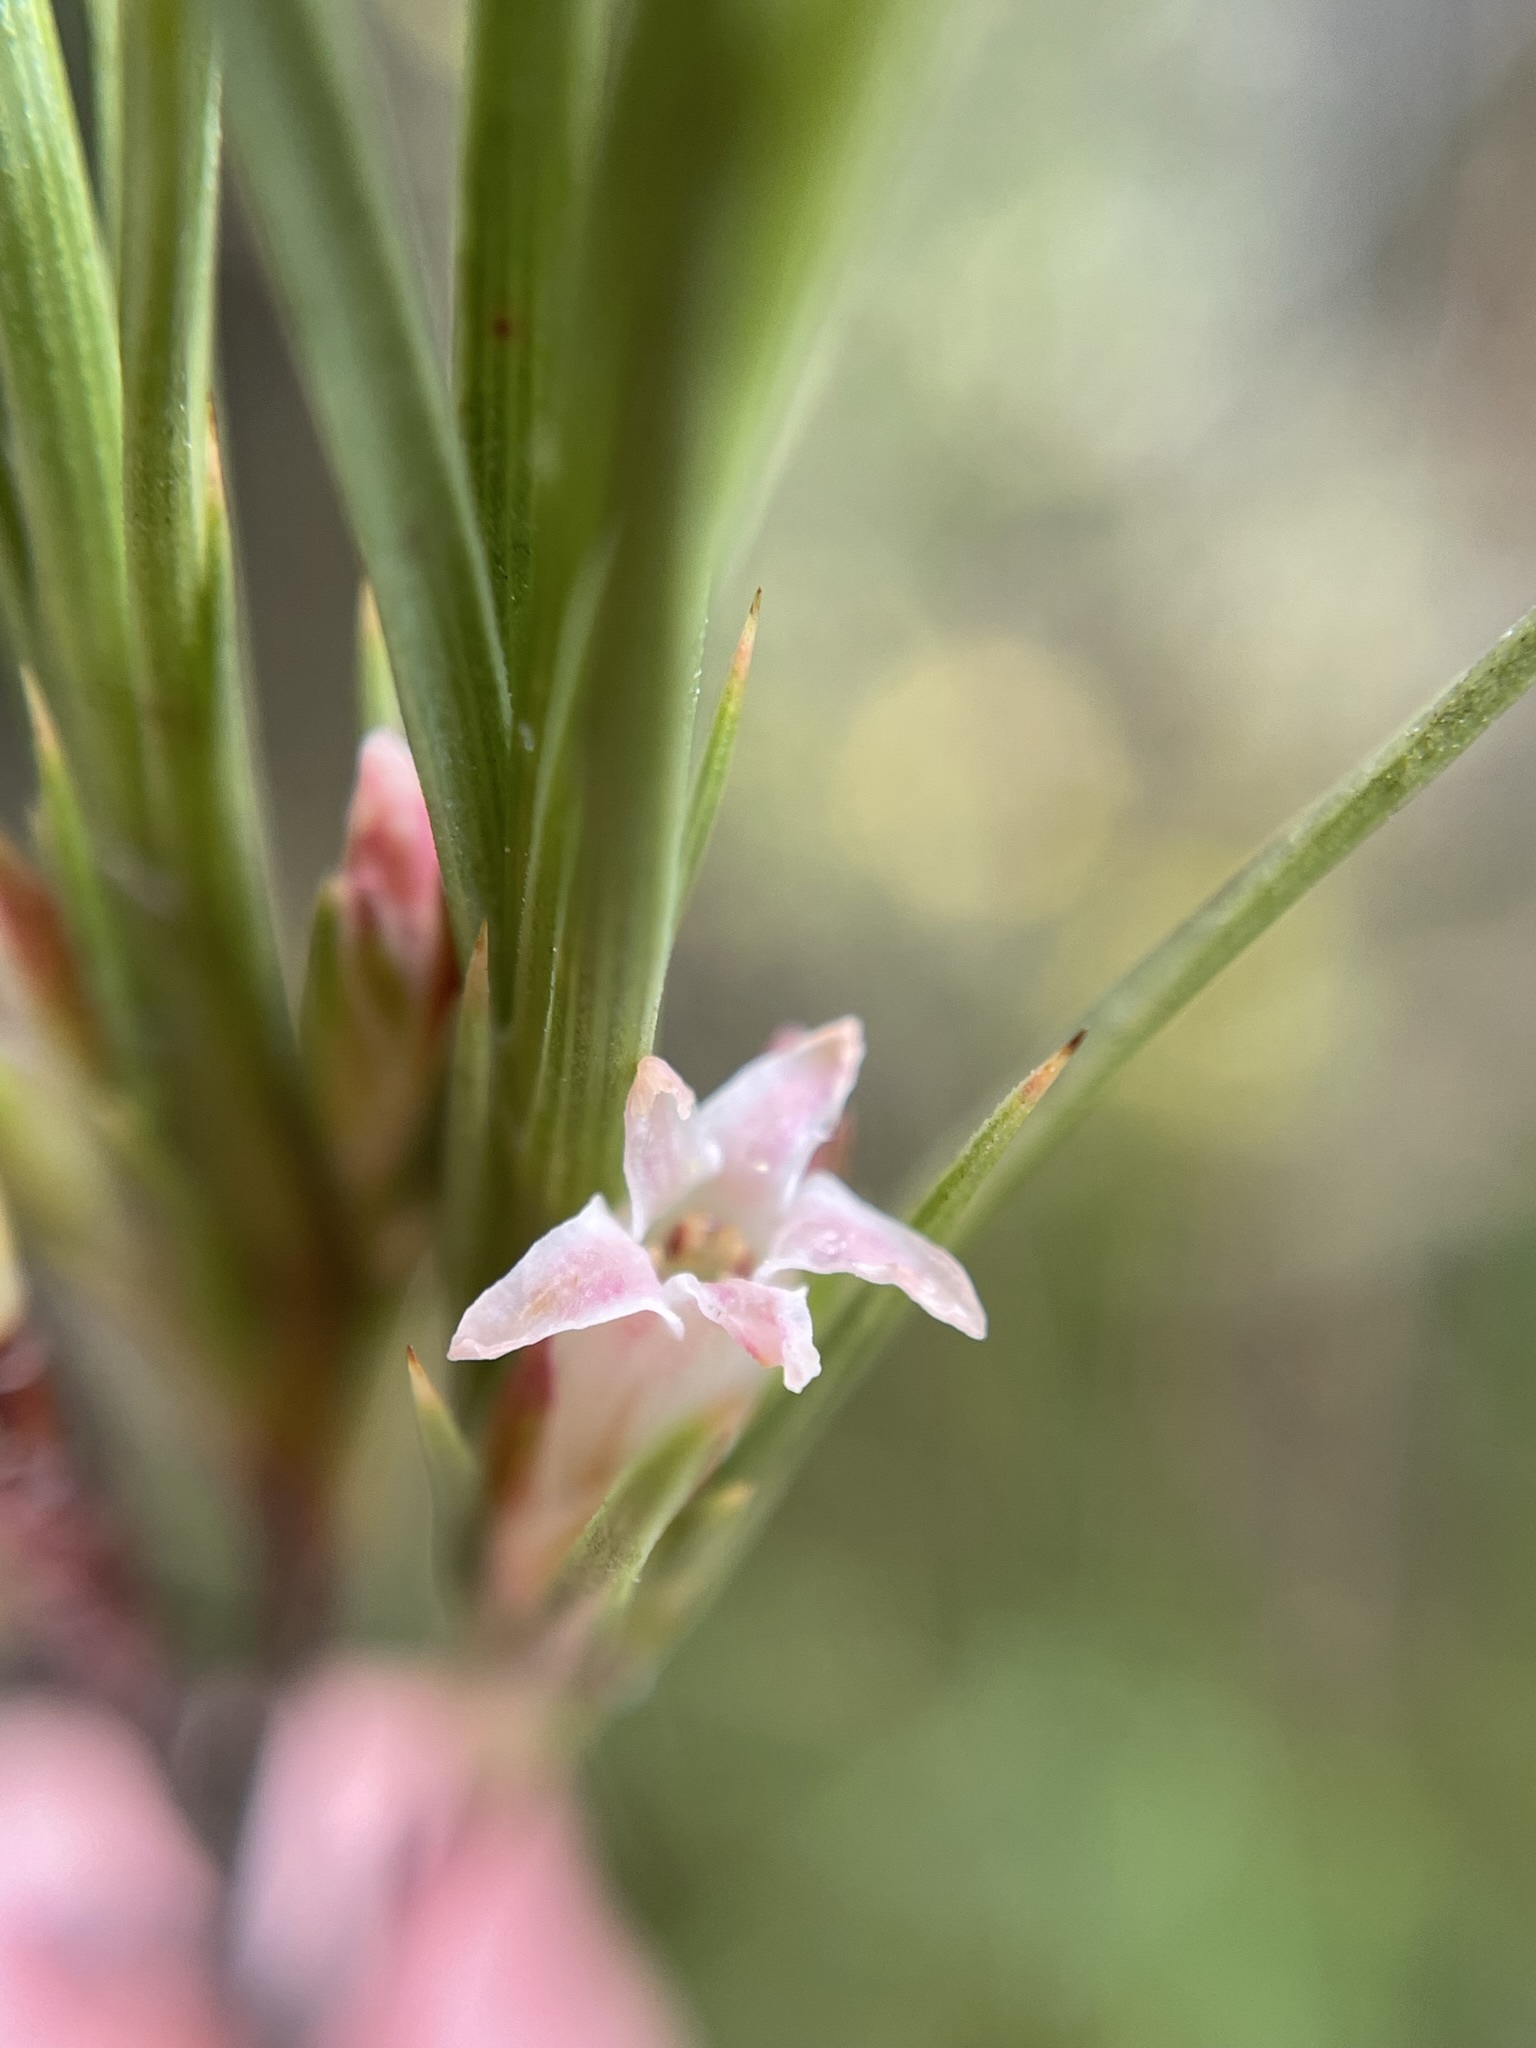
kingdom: Plantae
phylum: Tracheophyta
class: Magnoliopsida
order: Ericales
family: Ericaceae
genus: Dracophyllum
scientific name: Dracophyllum longifolium
